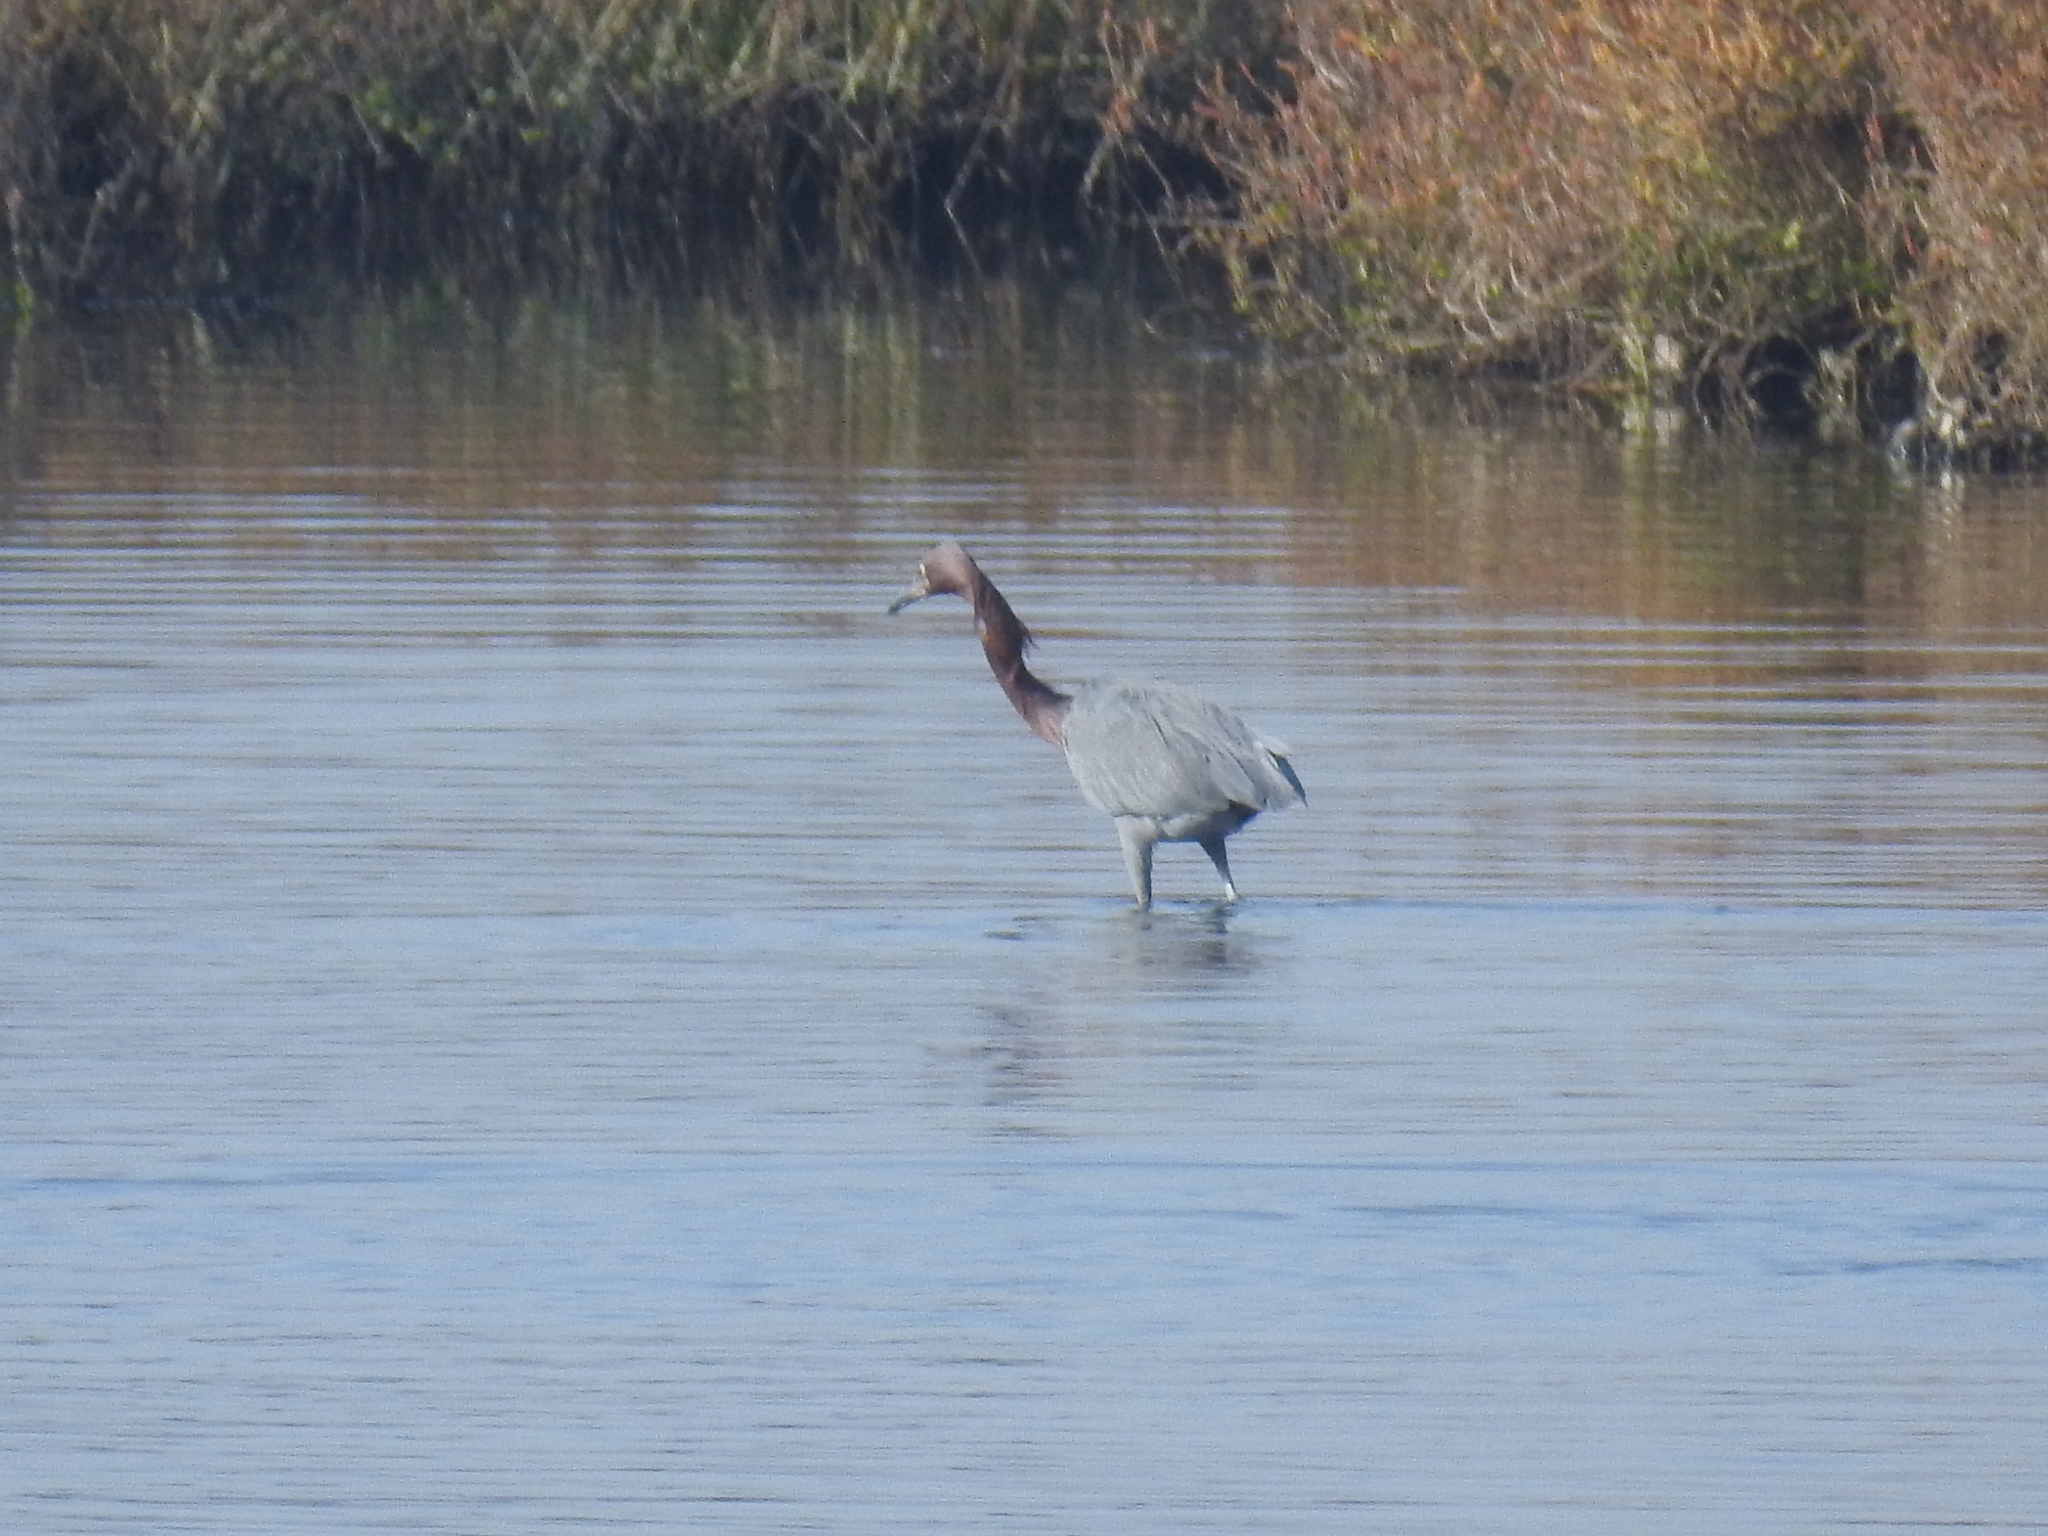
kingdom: Animalia
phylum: Chordata
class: Aves
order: Pelecaniformes
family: Ardeidae
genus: Egretta
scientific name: Egretta rufescens
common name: Reddish egret
